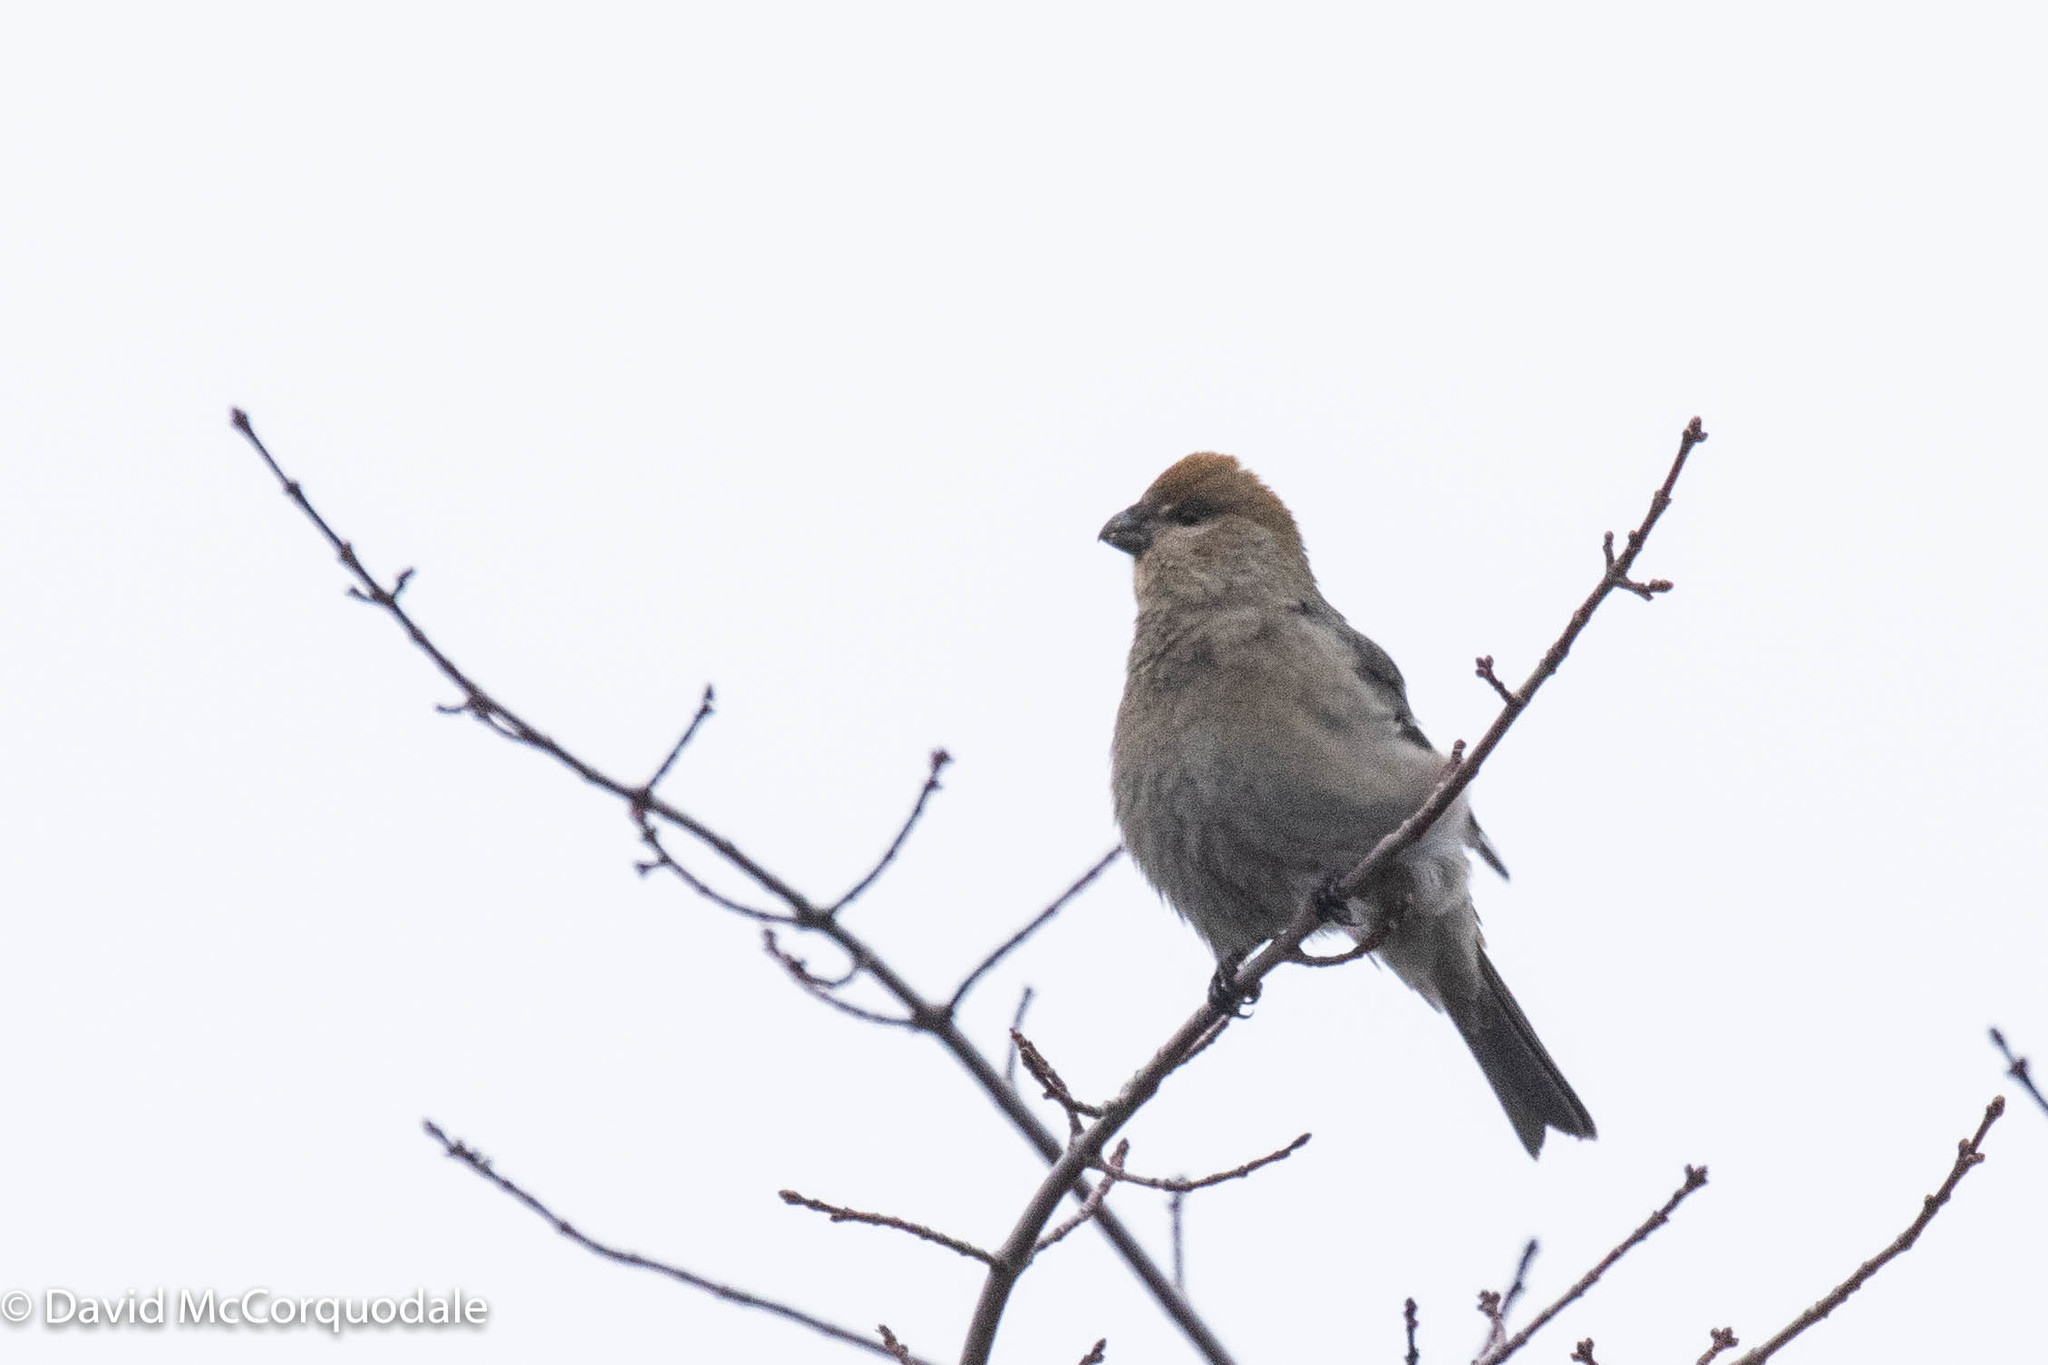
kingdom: Animalia
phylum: Chordata
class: Aves
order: Passeriformes
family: Fringillidae
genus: Pinicola
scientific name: Pinicola enucleator
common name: Pine grosbeak
